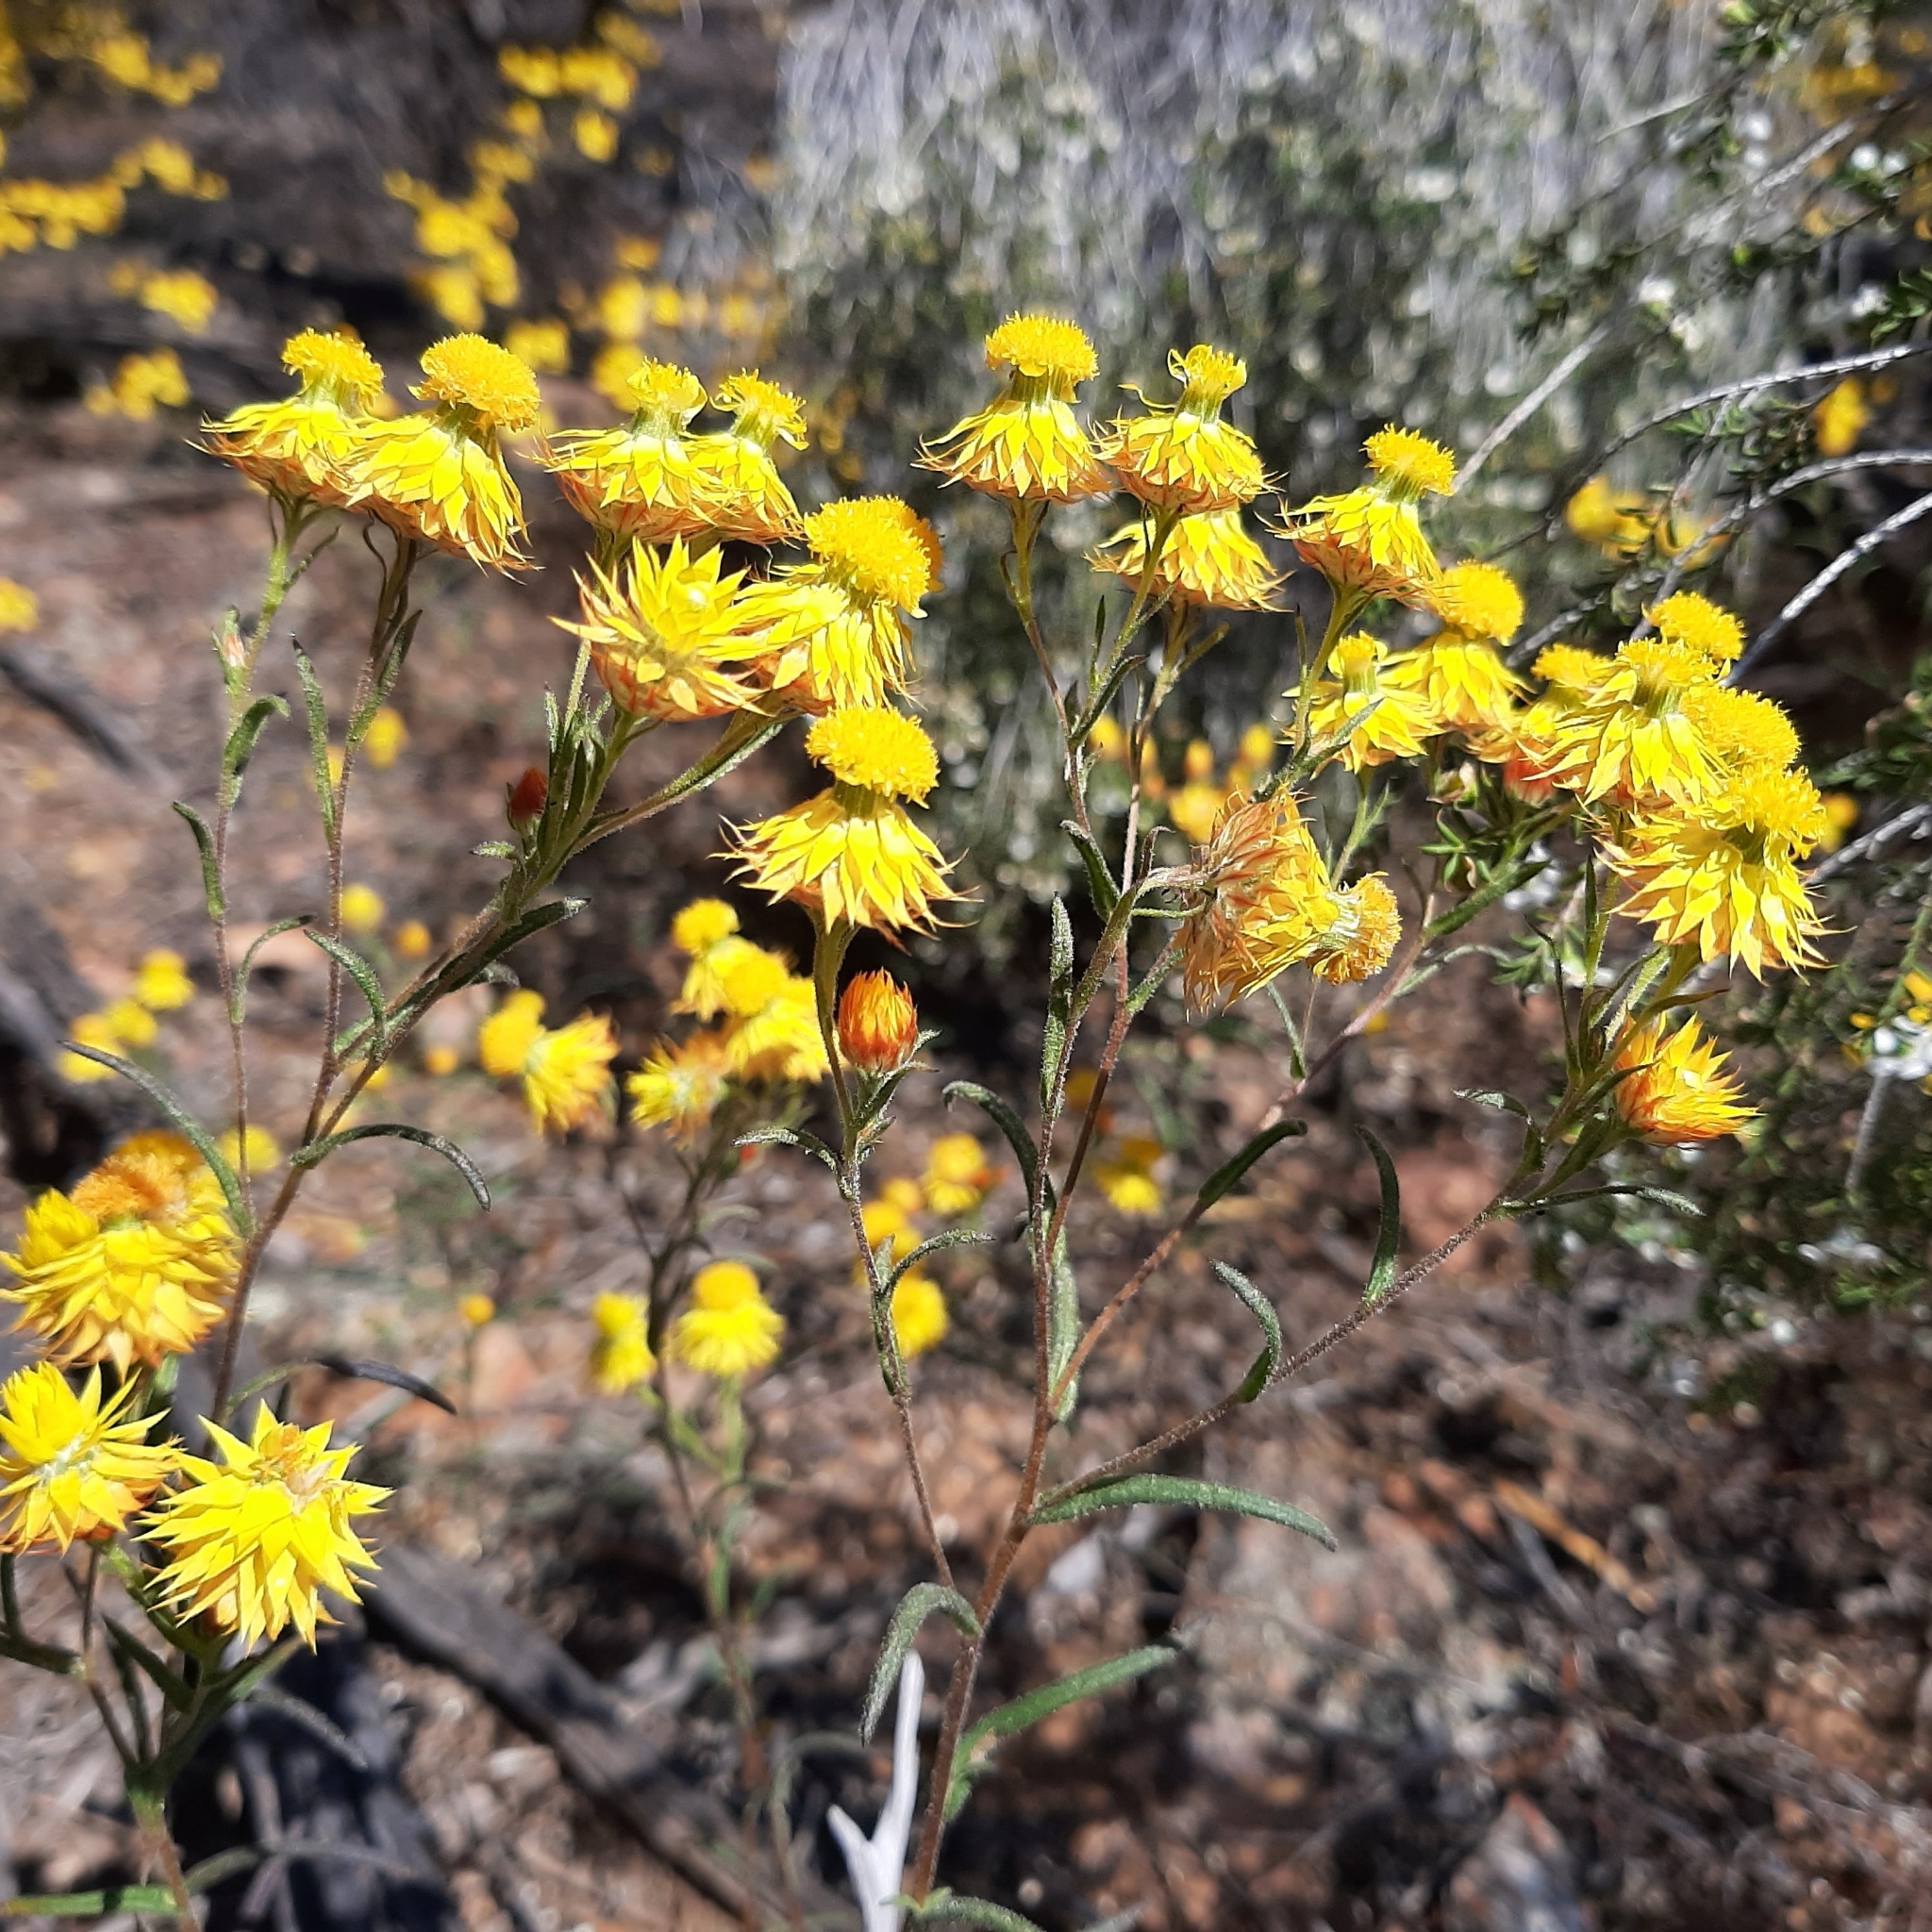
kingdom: Plantae
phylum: Tracheophyta
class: Magnoliopsida
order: Asterales
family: Asteraceae
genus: Waitzia
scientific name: Waitzia acuminata
